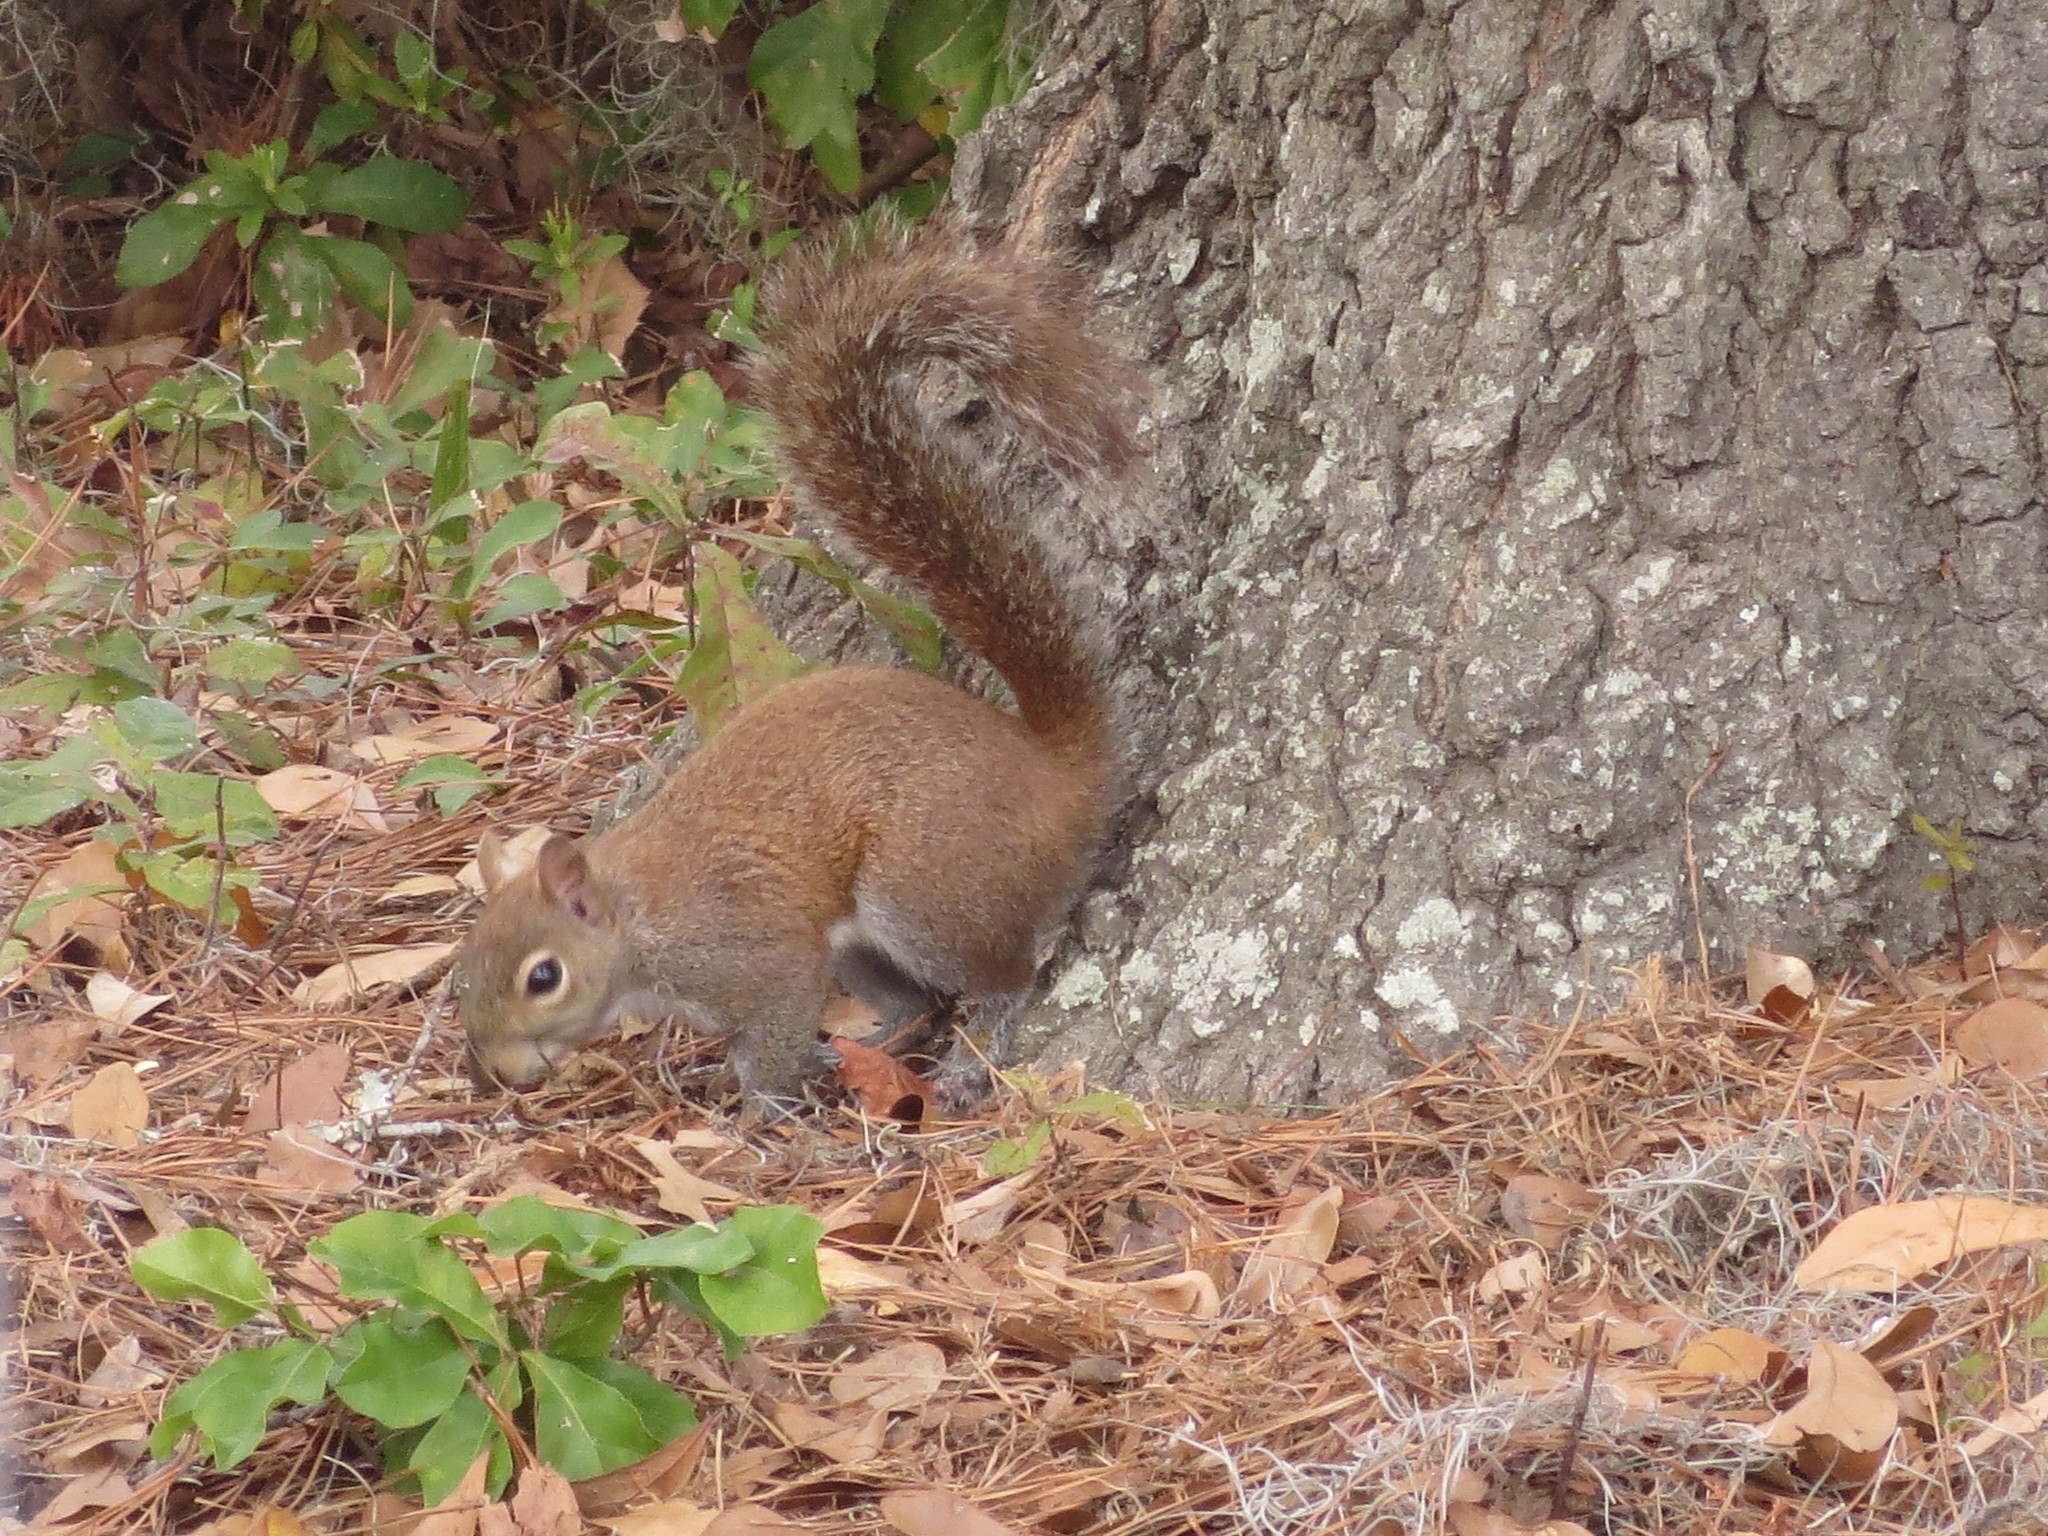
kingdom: Animalia
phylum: Chordata
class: Mammalia
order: Rodentia
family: Sciuridae
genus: Sciurus
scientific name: Sciurus carolinensis
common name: Eastern gray squirrel
